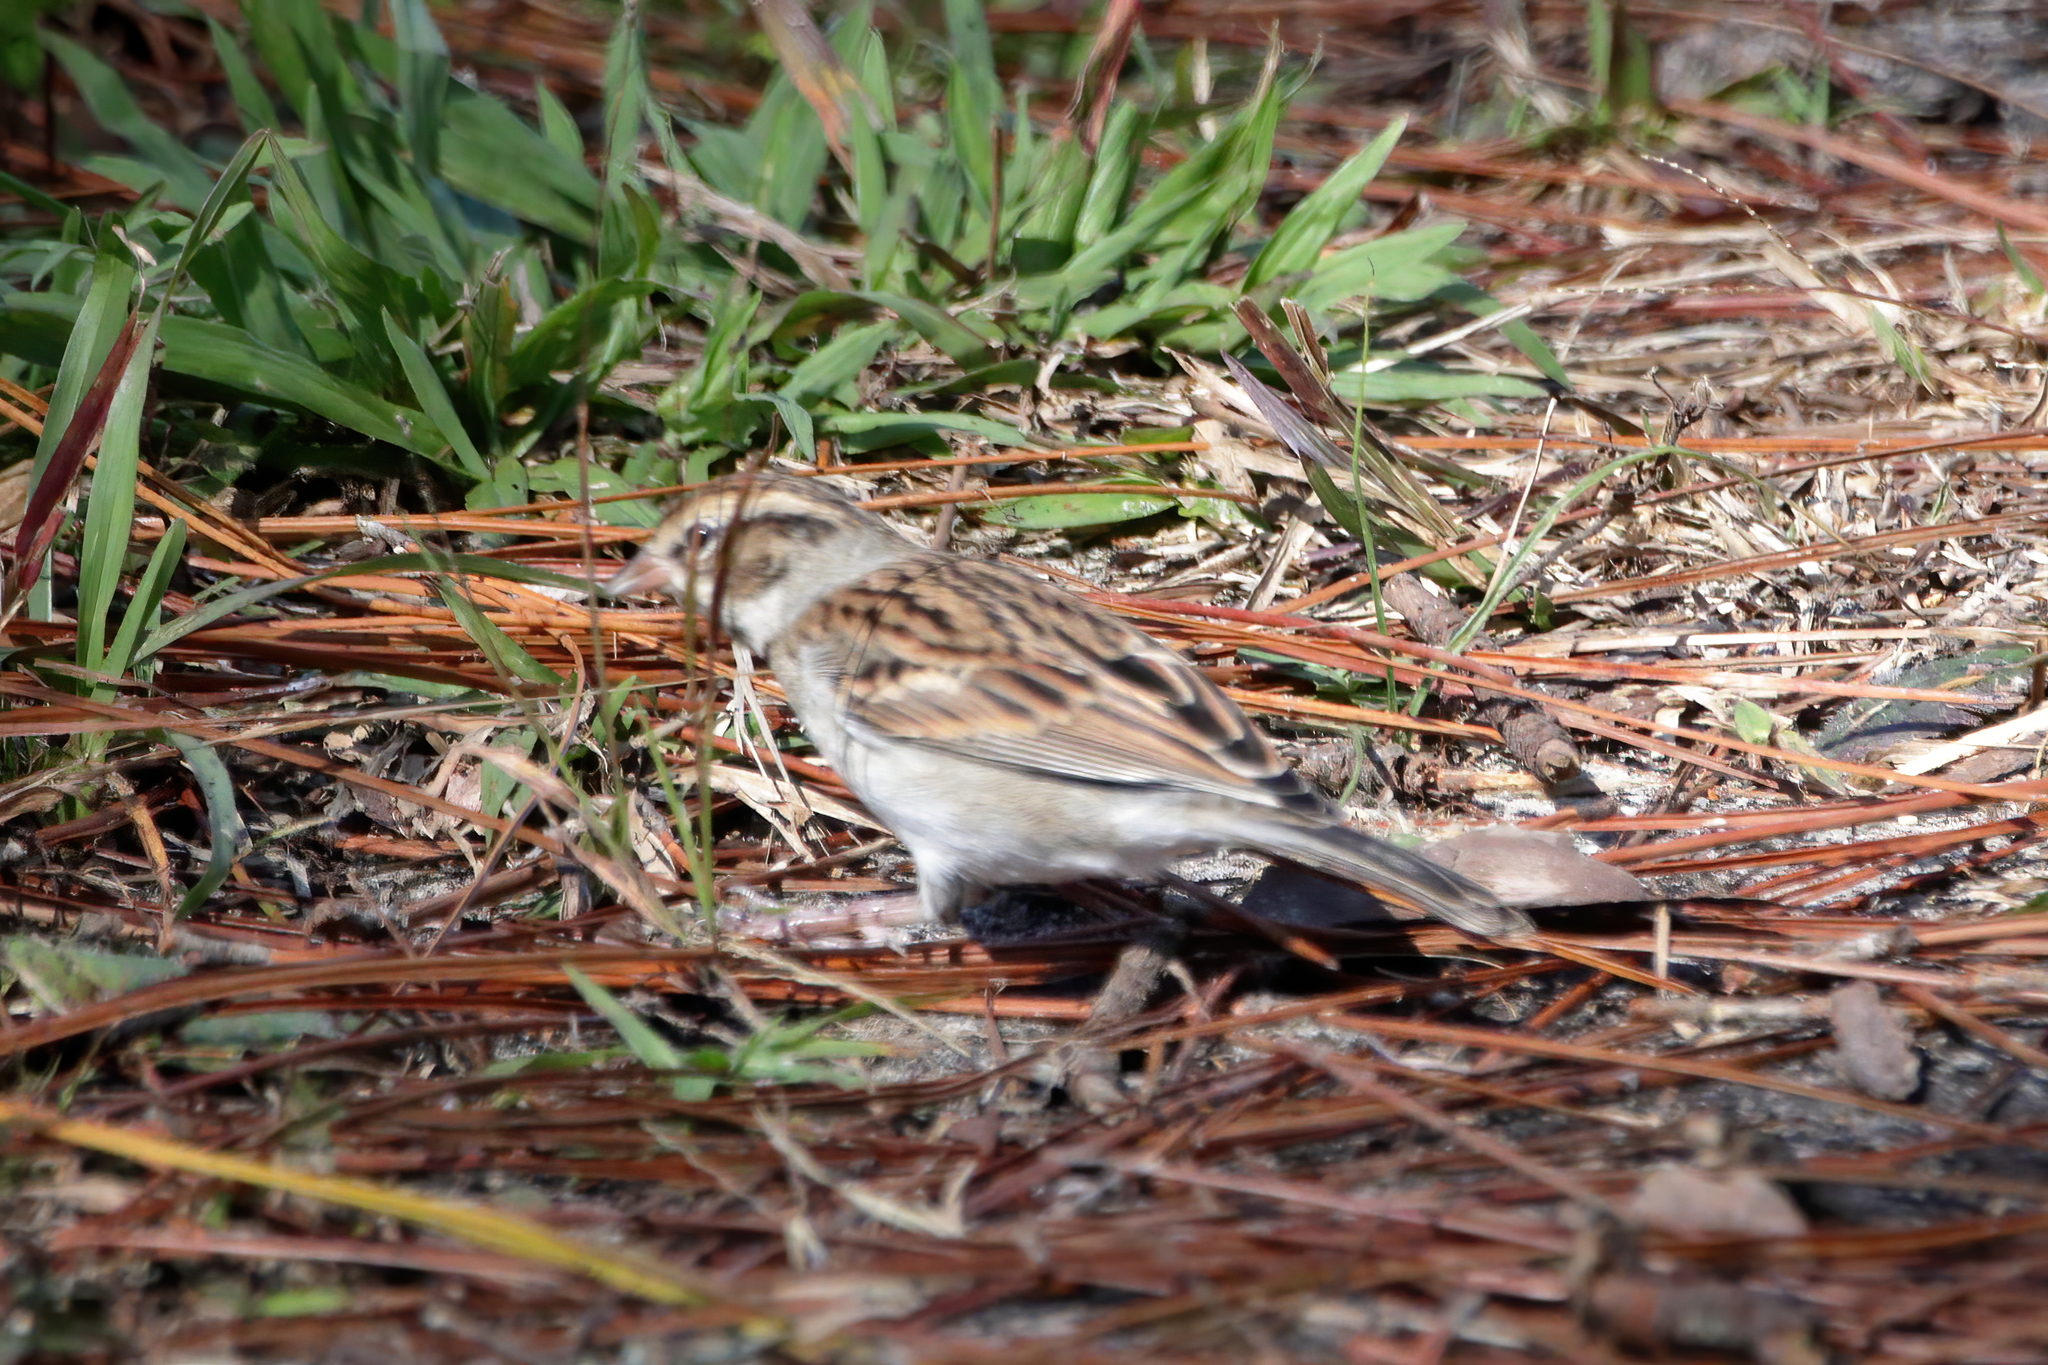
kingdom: Animalia
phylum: Chordata
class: Aves
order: Passeriformes
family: Passerellidae
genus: Spizella
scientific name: Spizella passerina
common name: Chipping sparrow
